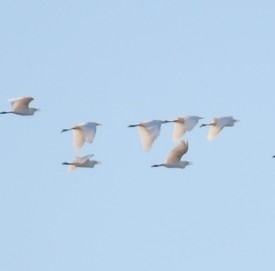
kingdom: Animalia
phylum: Chordata
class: Aves
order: Pelecaniformes
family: Ardeidae
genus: Bubulcus
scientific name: Bubulcus ibis
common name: Cattle egret
